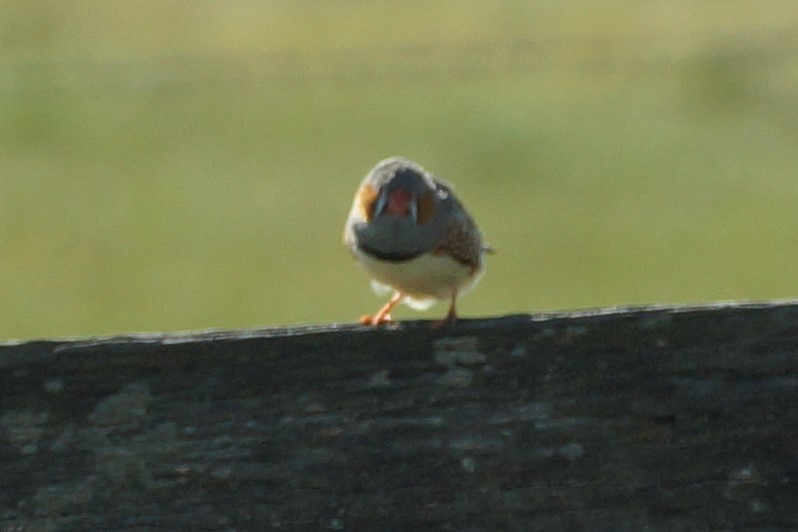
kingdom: Animalia
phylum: Chordata
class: Aves
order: Passeriformes
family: Estrildidae
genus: Taeniopygia
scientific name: Taeniopygia guttata
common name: Zebra finch
